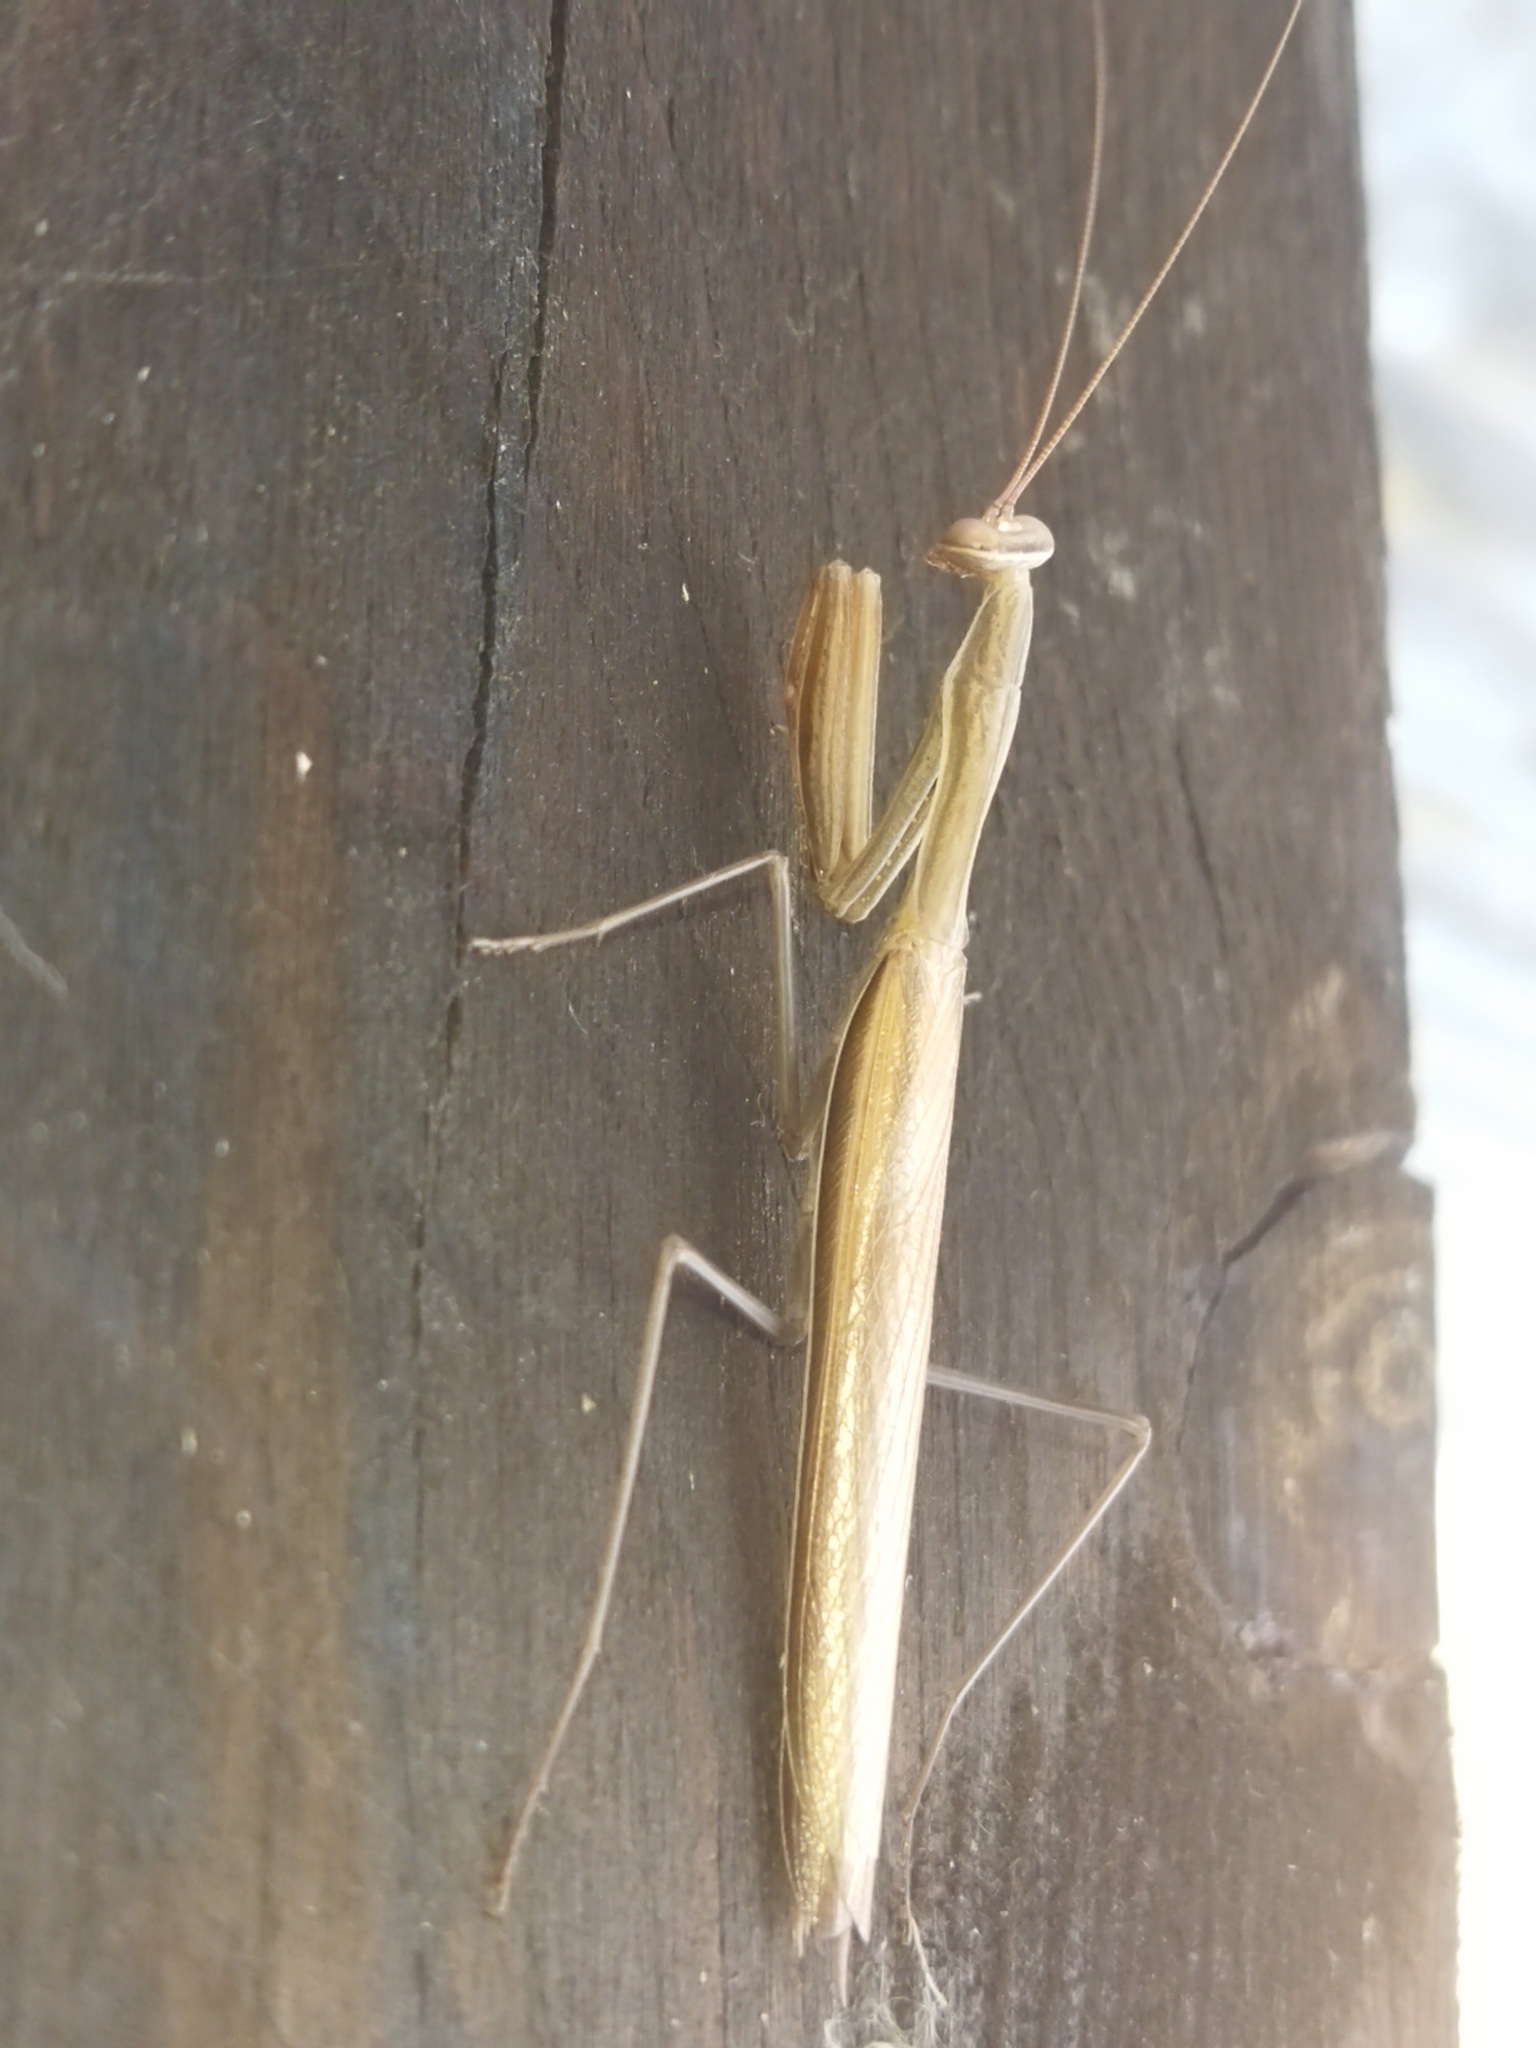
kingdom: Animalia
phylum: Arthropoda
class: Insecta
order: Mantodea
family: Mantidae
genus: Mantis
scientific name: Mantis religiosa
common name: Praying mantis
